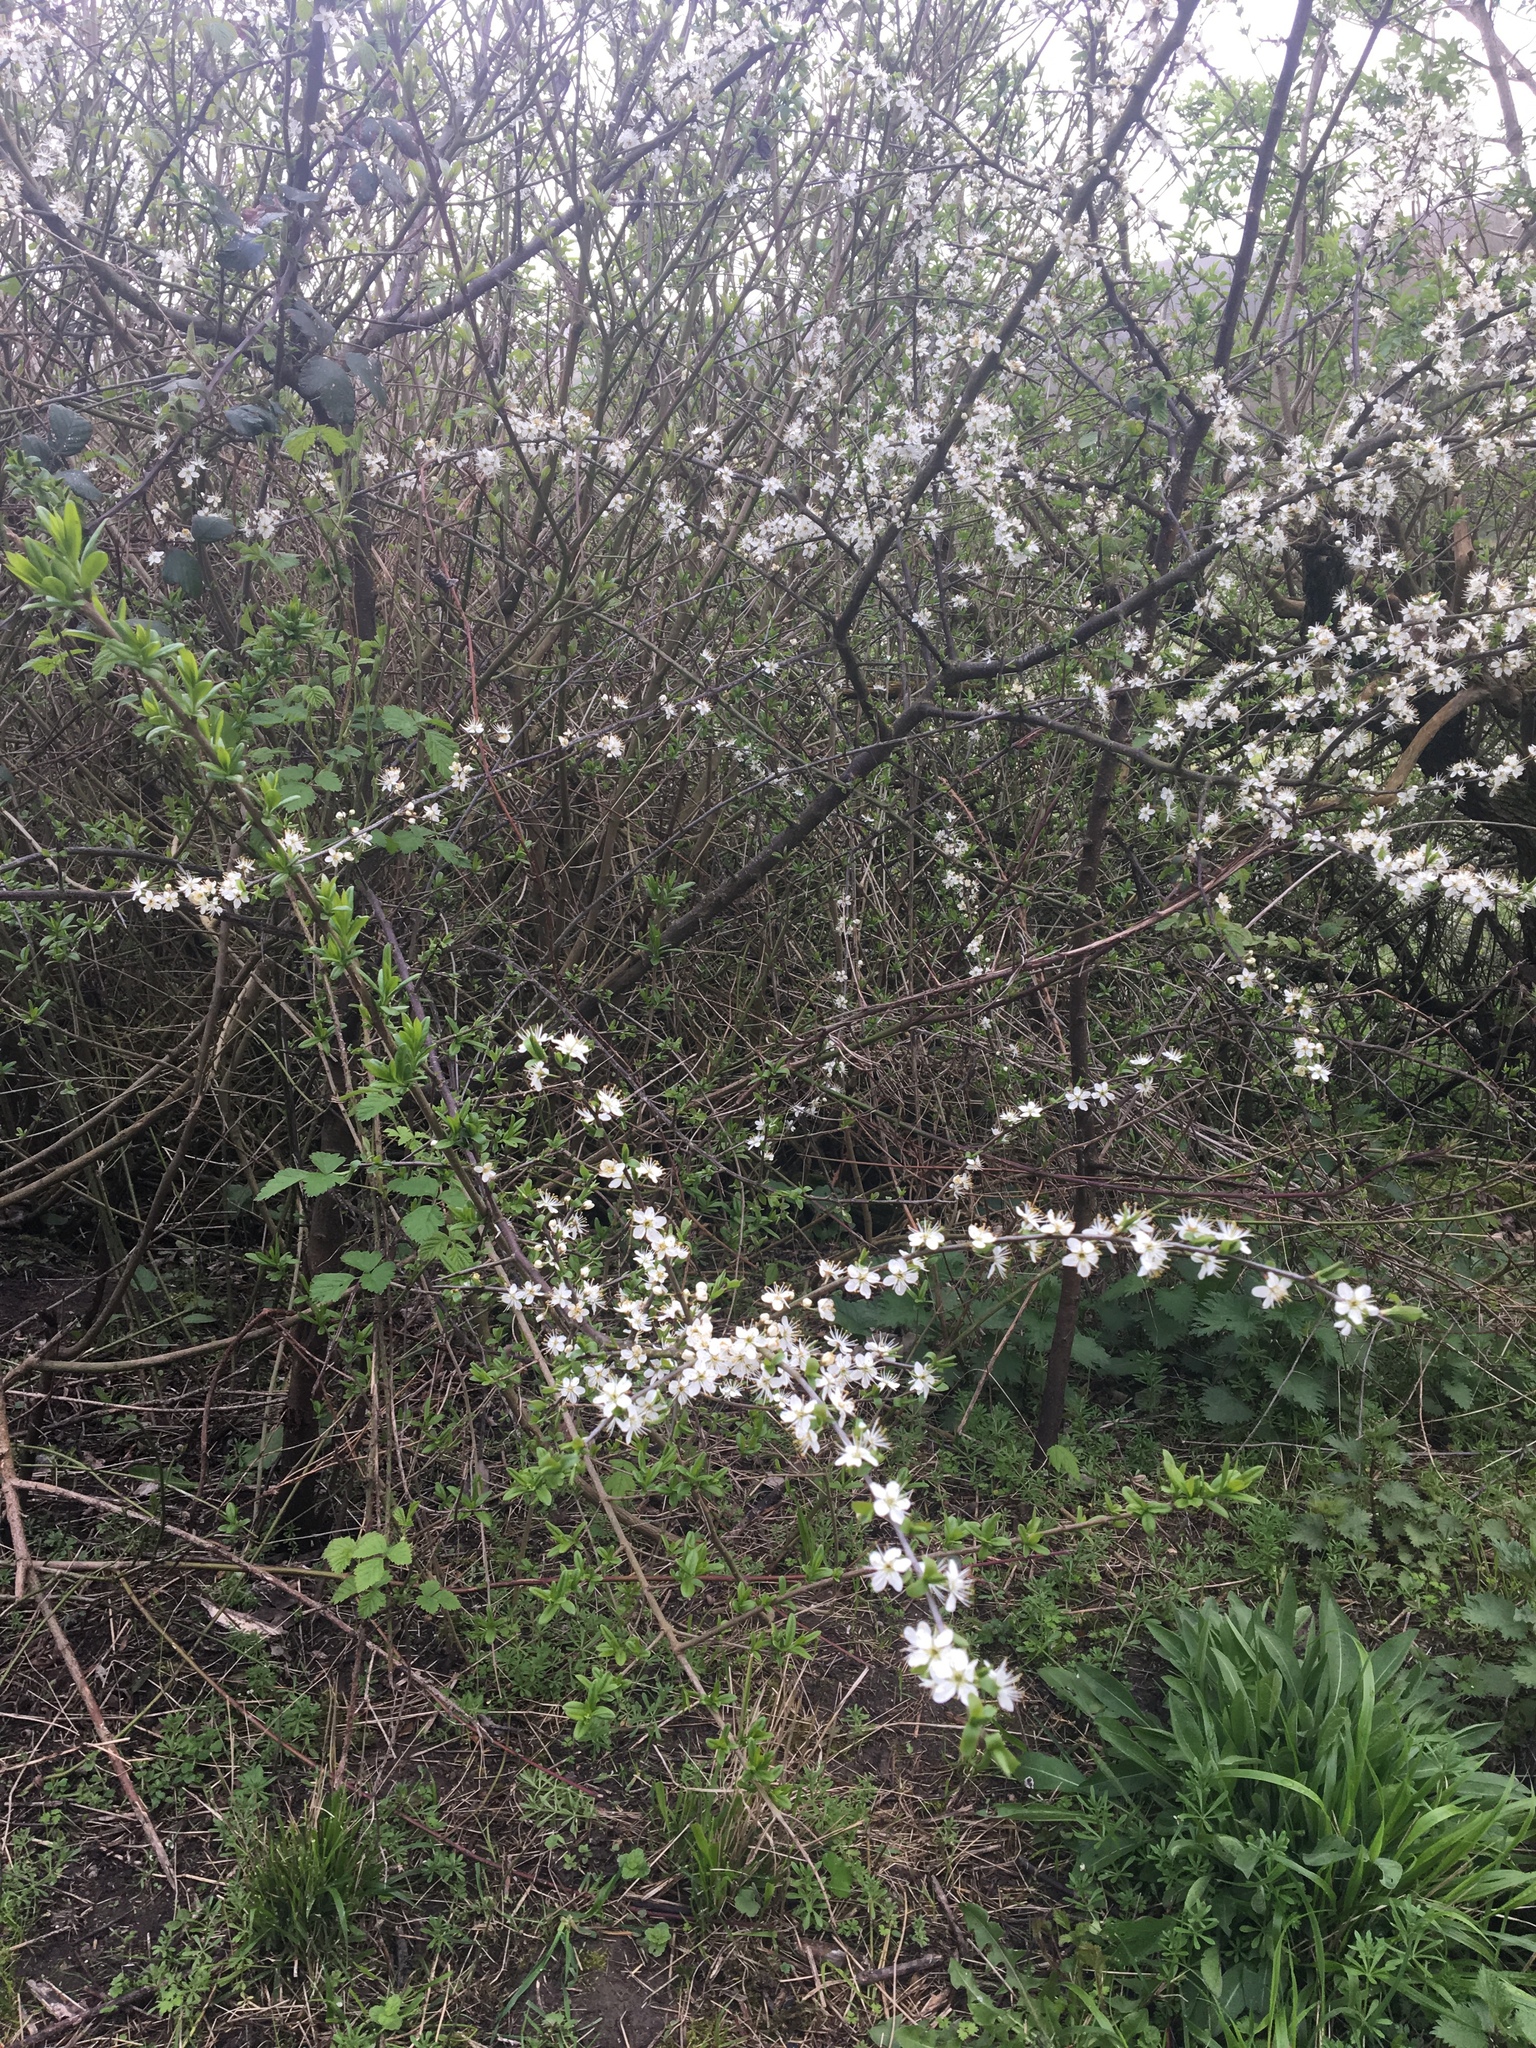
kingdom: Plantae
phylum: Tracheophyta
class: Magnoliopsida
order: Rosales
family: Rosaceae
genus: Prunus
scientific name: Prunus spinosa
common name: Blackthorn
